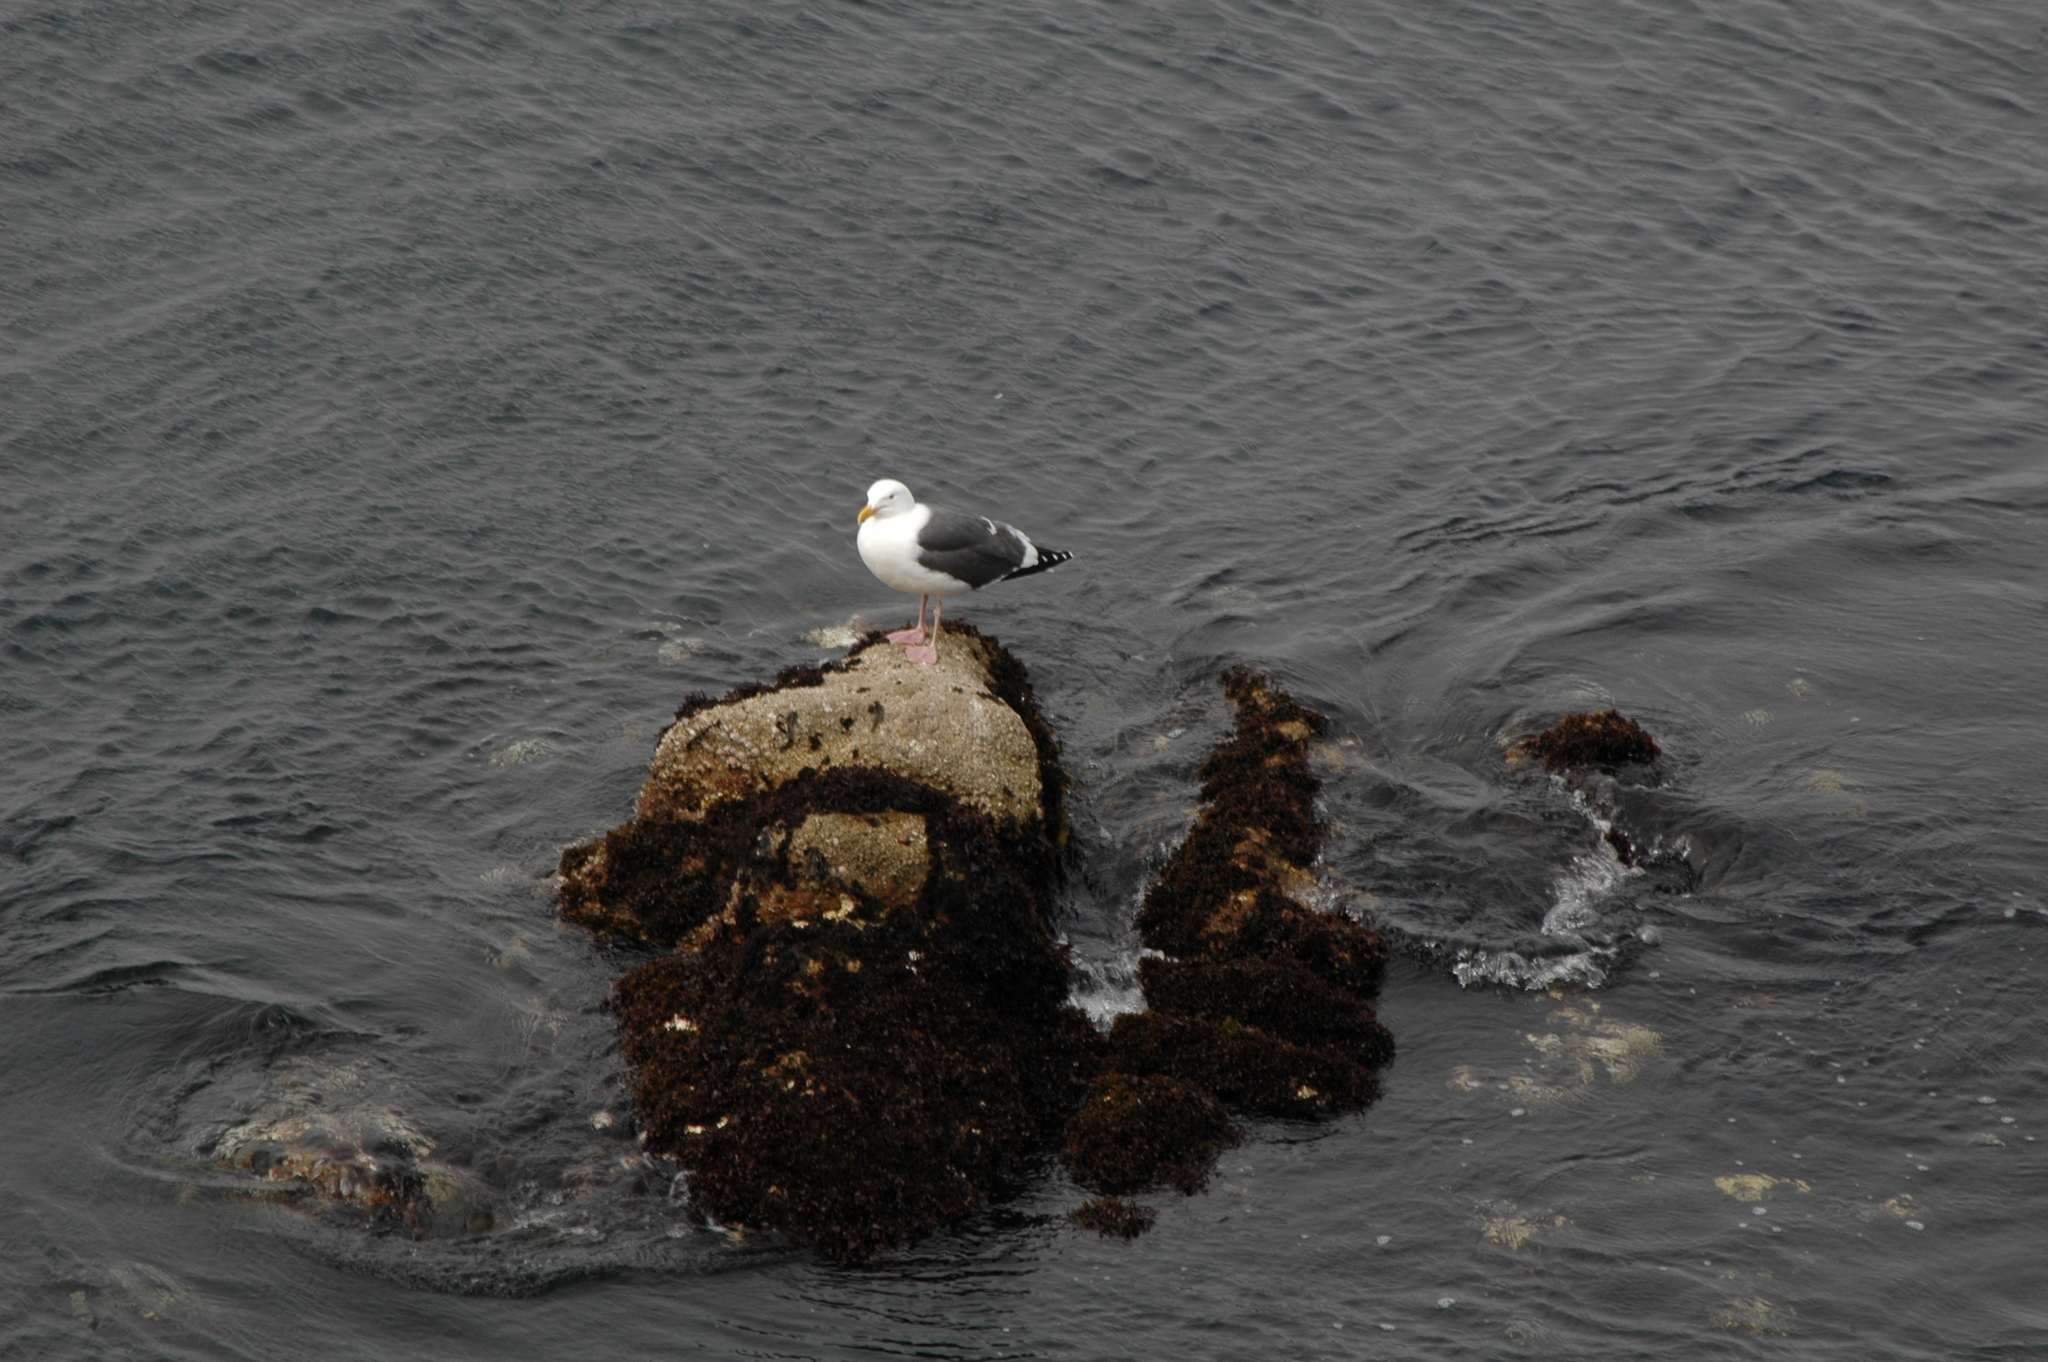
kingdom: Animalia
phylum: Chordata
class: Aves
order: Charadriiformes
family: Laridae
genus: Larus
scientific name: Larus occidentalis
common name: Western gull
